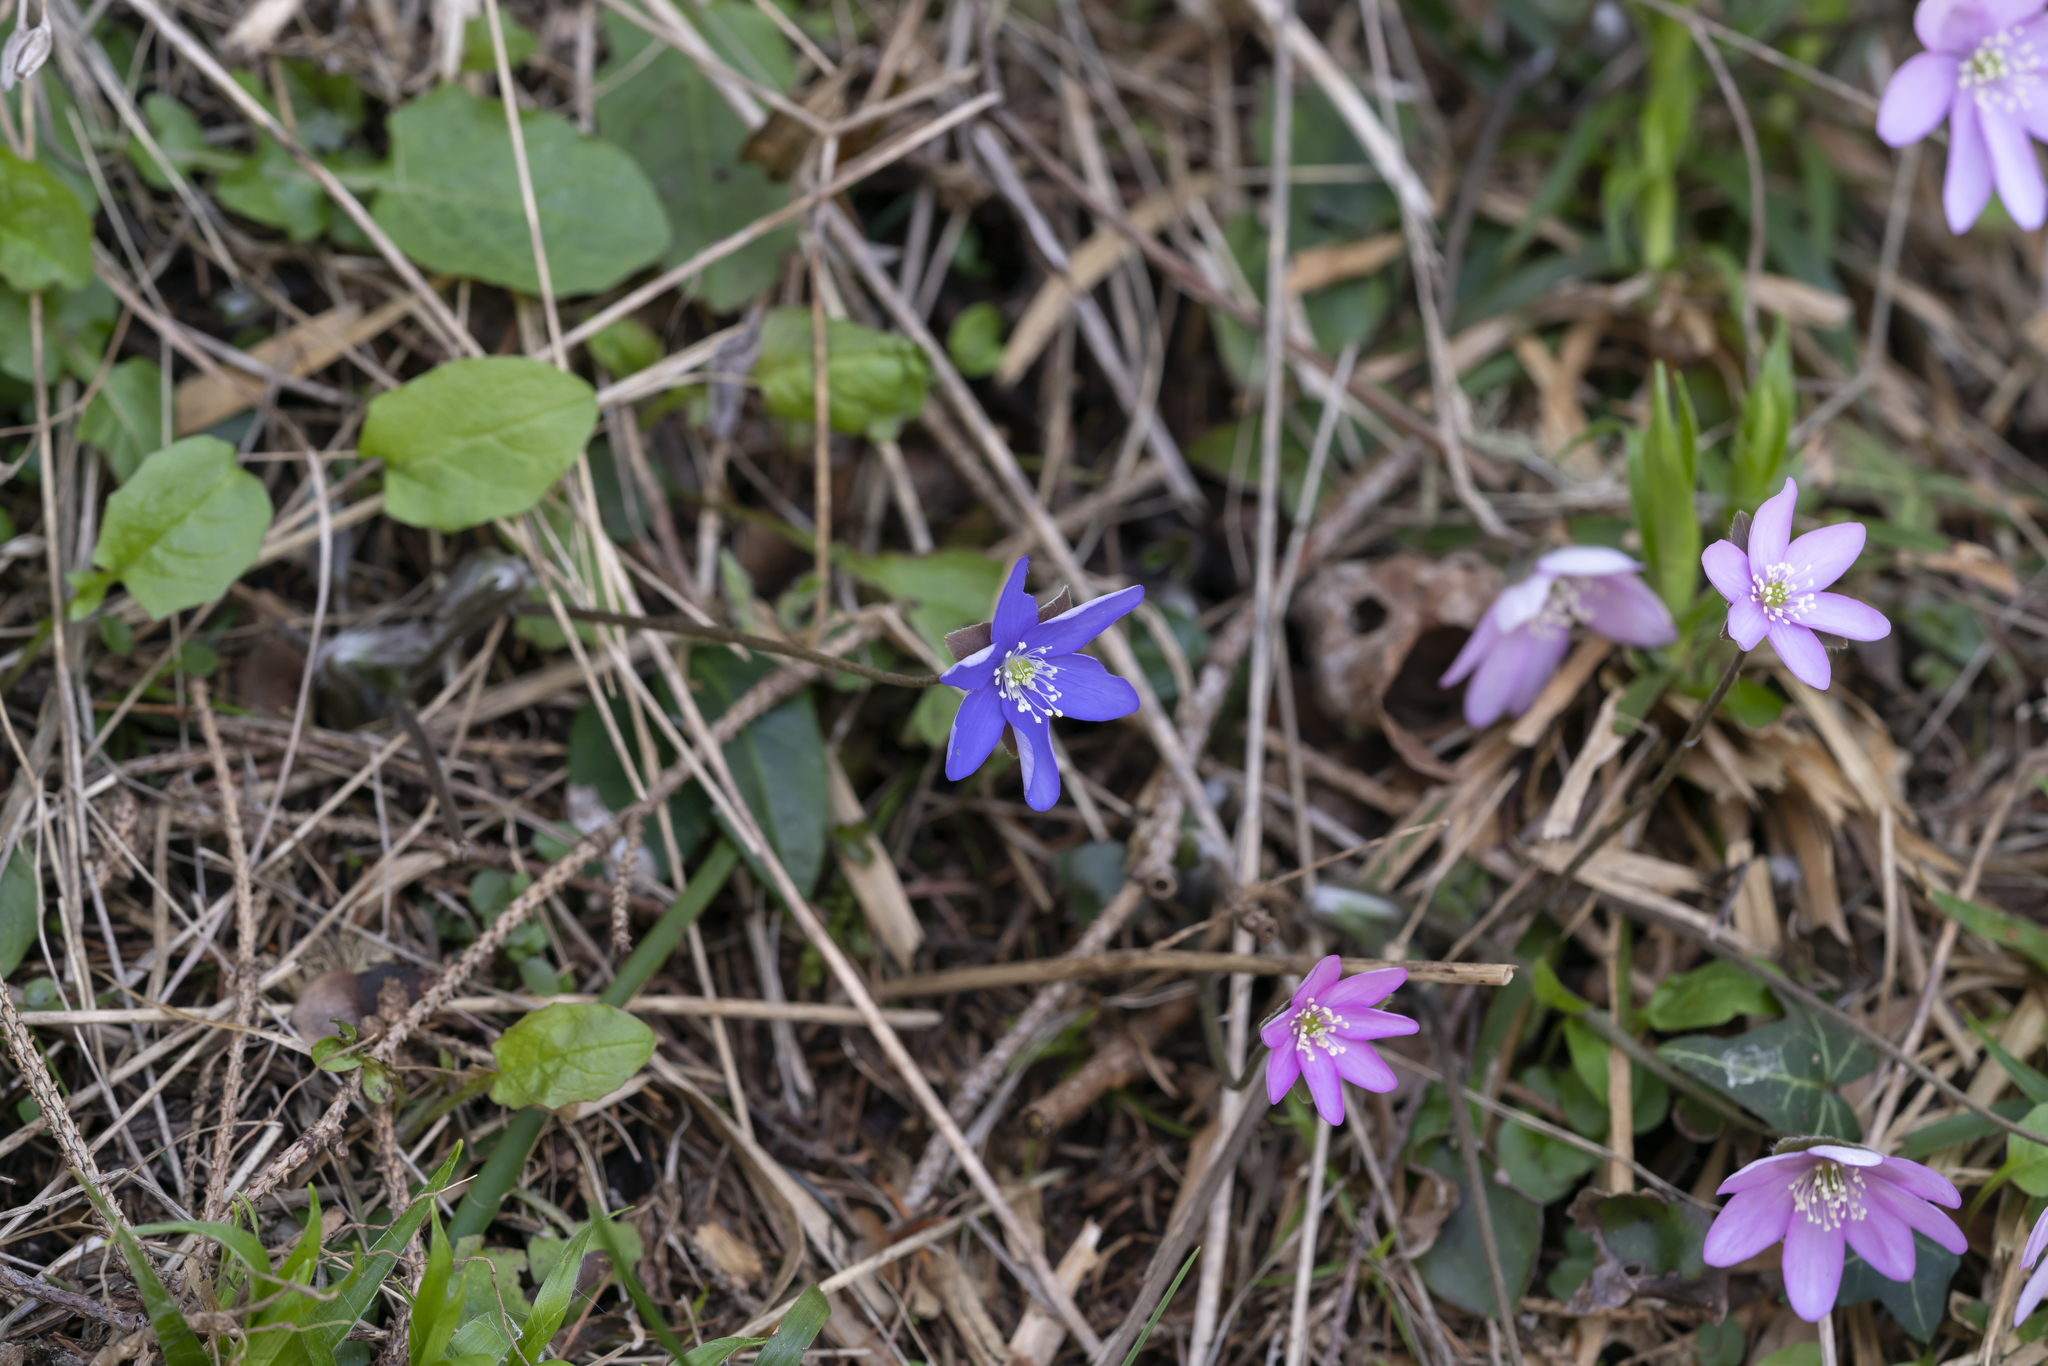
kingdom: Plantae
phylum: Tracheophyta
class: Magnoliopsida
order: Ranunculales
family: Ranunculaceae
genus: Hepatica
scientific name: Hepatica nobilis
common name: Liverleaf
